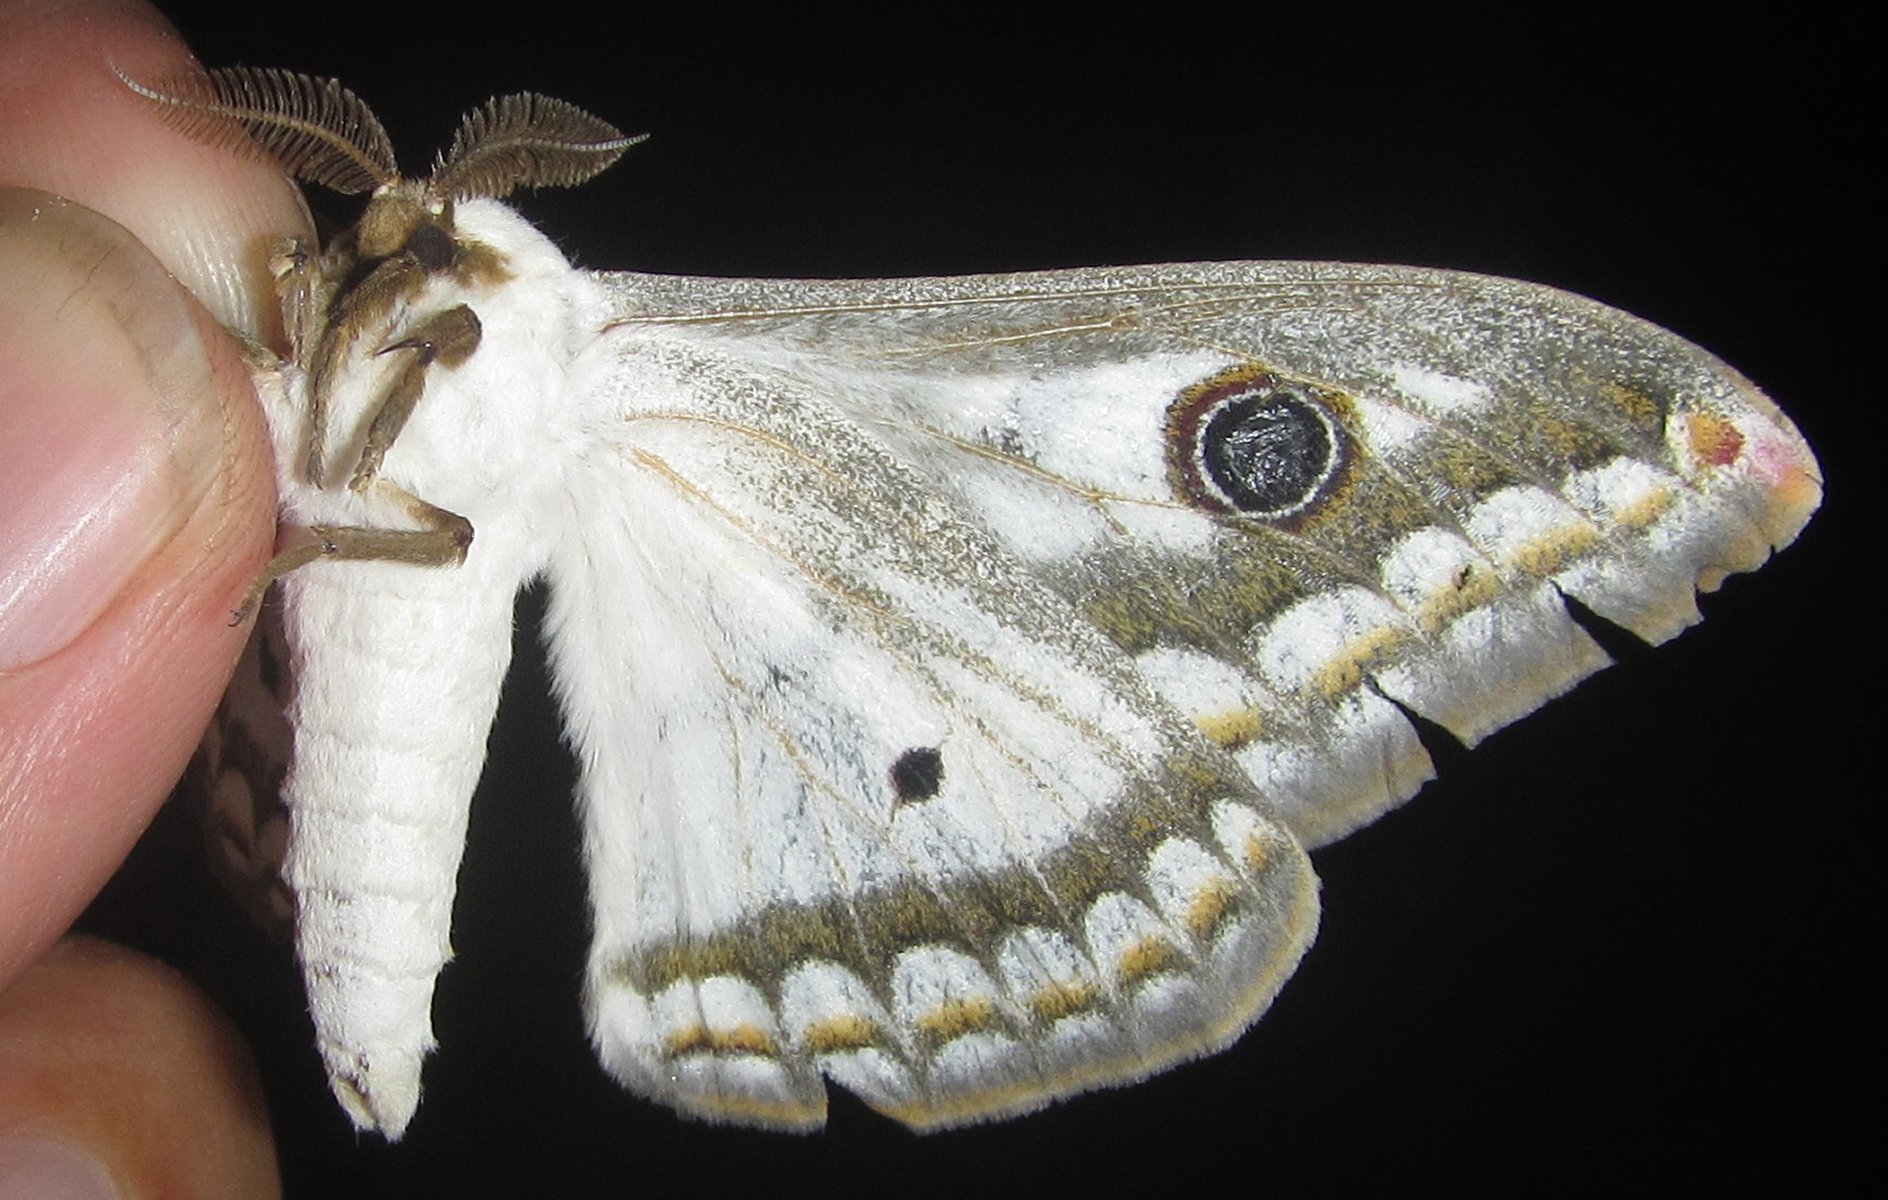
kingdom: Animalia
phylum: Arthropoda
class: Insecta
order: Lepidoptera
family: Saturniidae
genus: Heniocha
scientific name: Heniocha dyops
